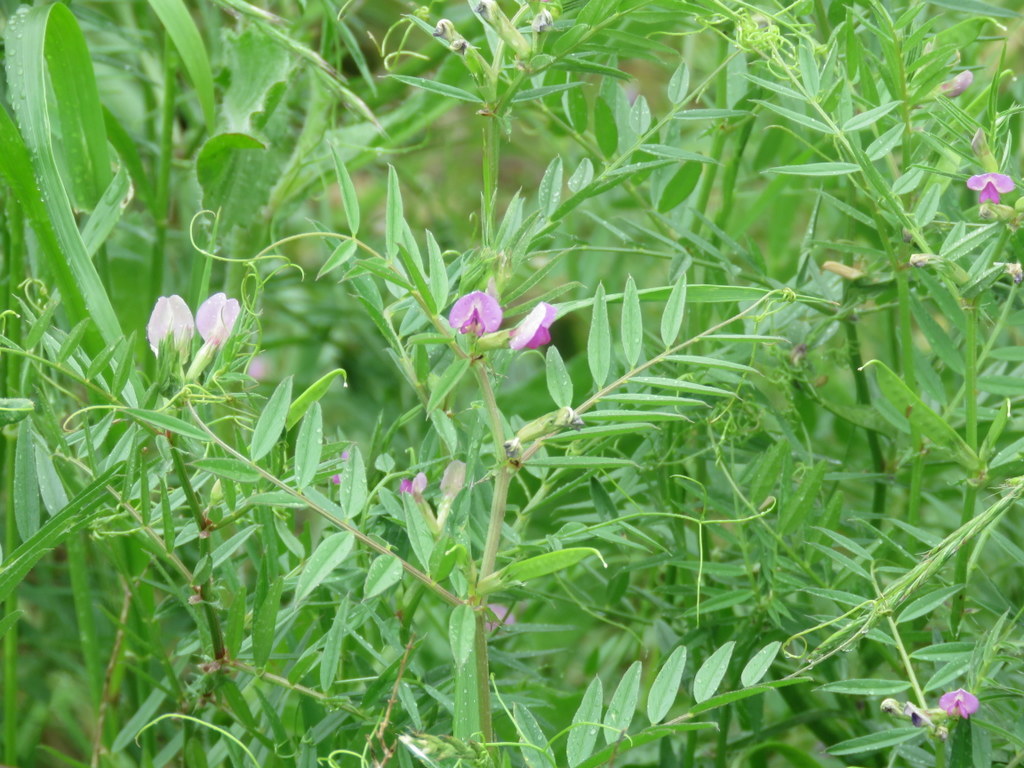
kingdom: Plantae
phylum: Tracheophyta
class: Magnoliopsida
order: Fabales
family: Fabaceae
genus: Vicia
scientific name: Vicia sativa
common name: Garden vetch
